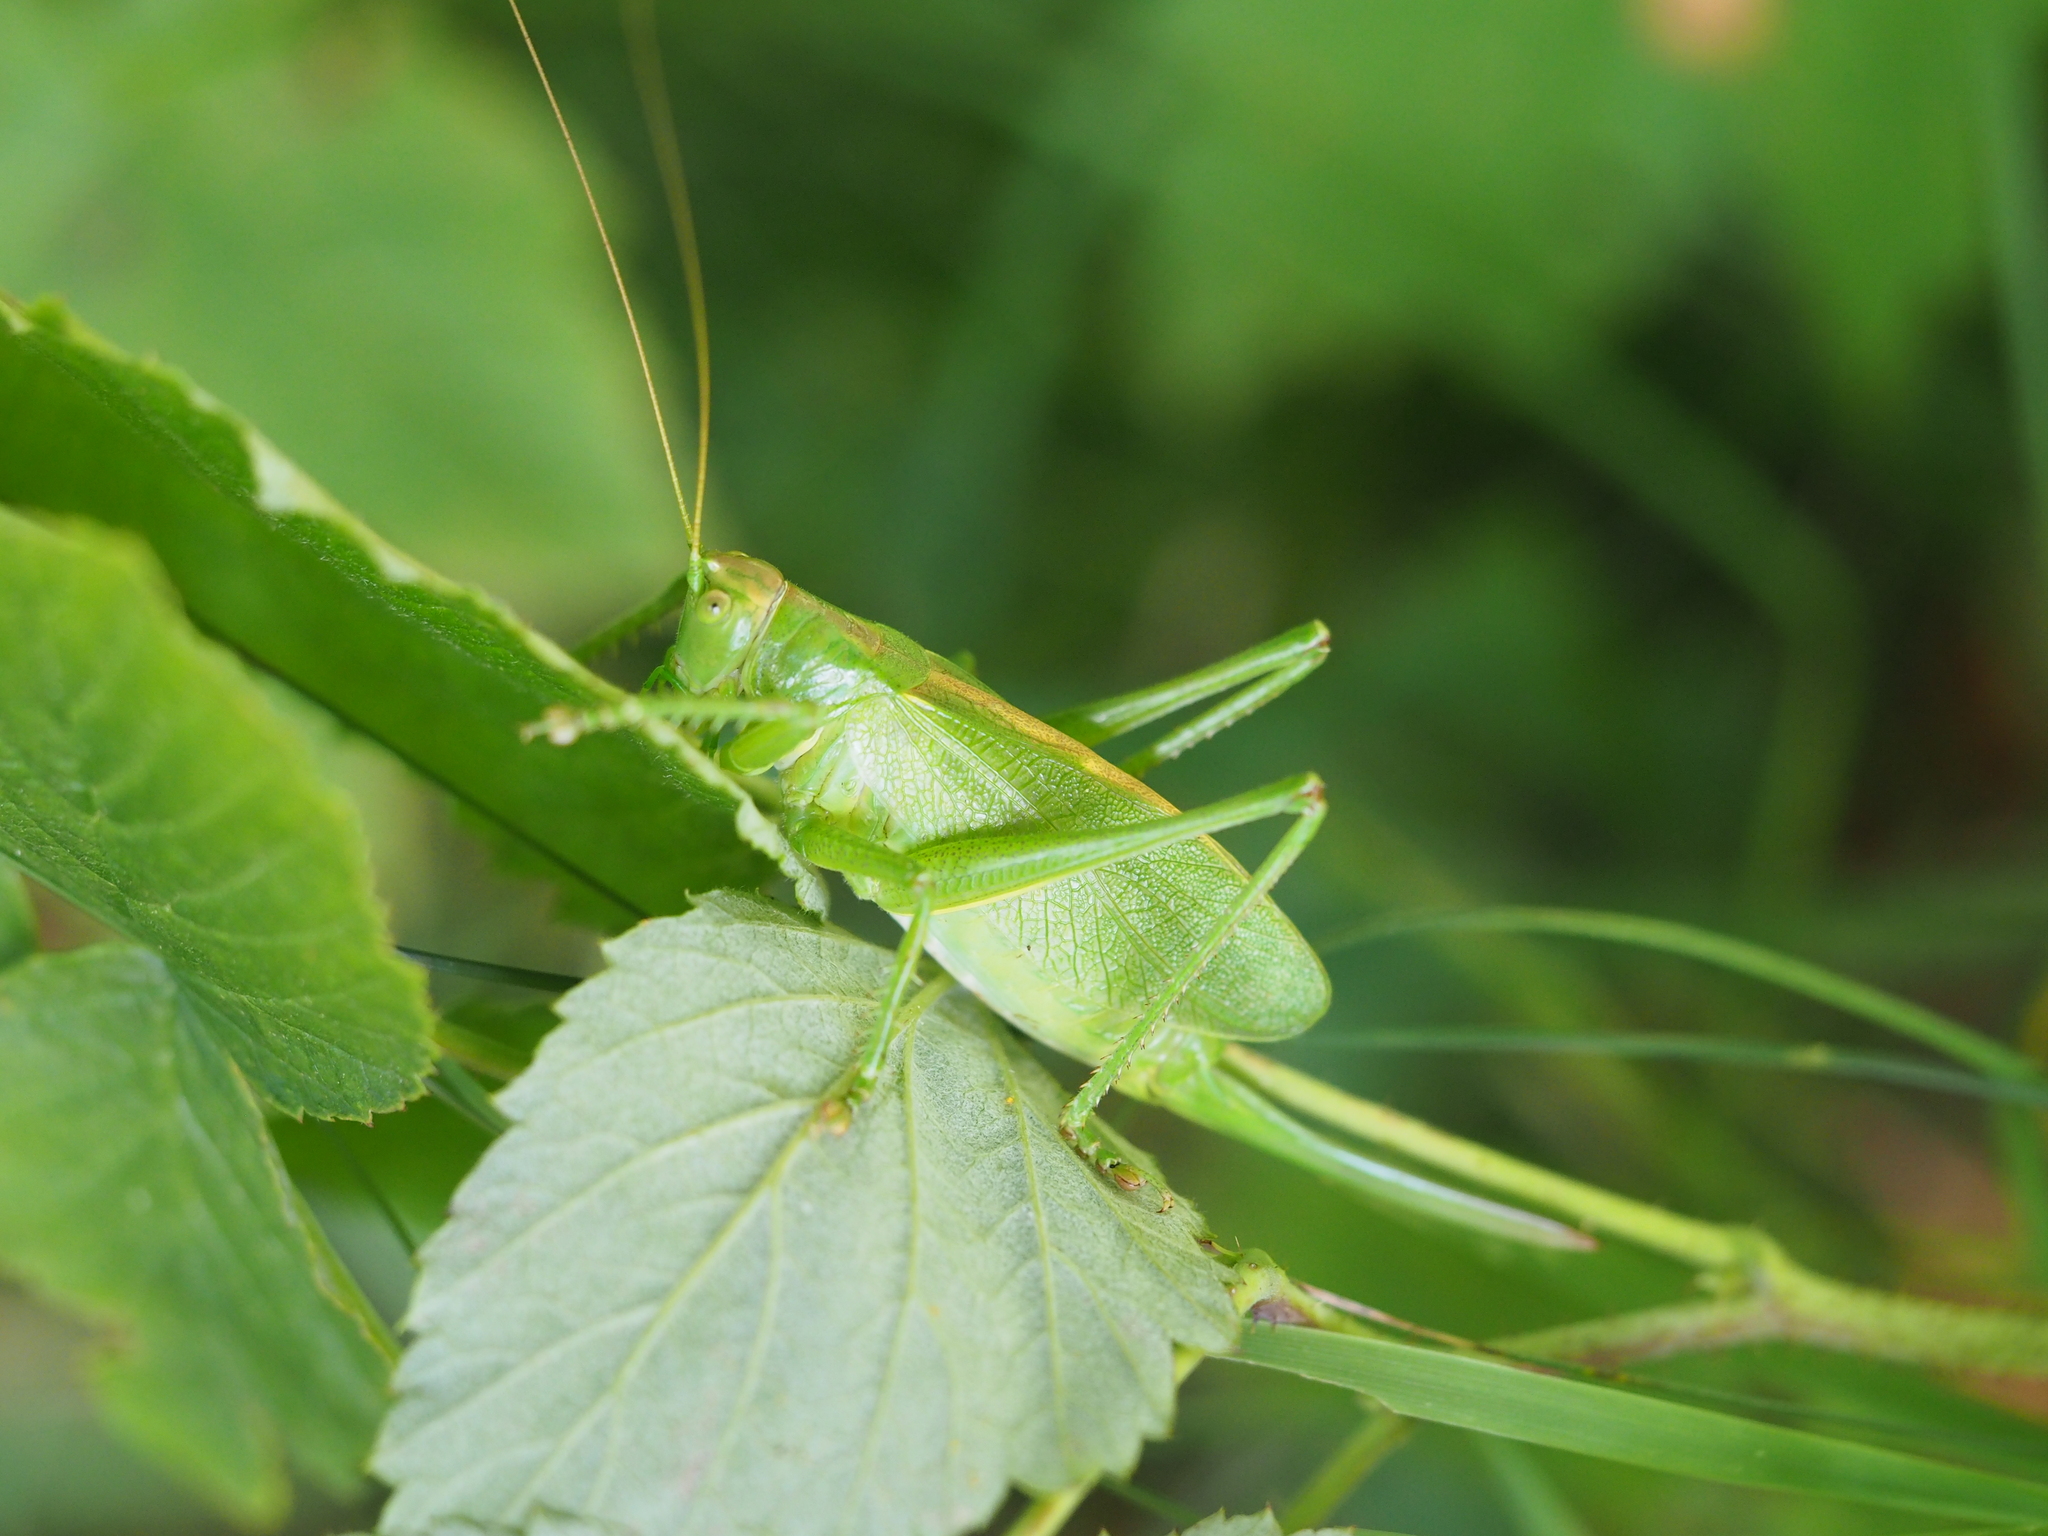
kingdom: Animalia
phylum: Arthropoda
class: Insecta
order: Orthoptera
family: Tettigoniidae
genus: Tettigonia
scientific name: Tettigonia cantans
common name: Upland green bush-cricket
